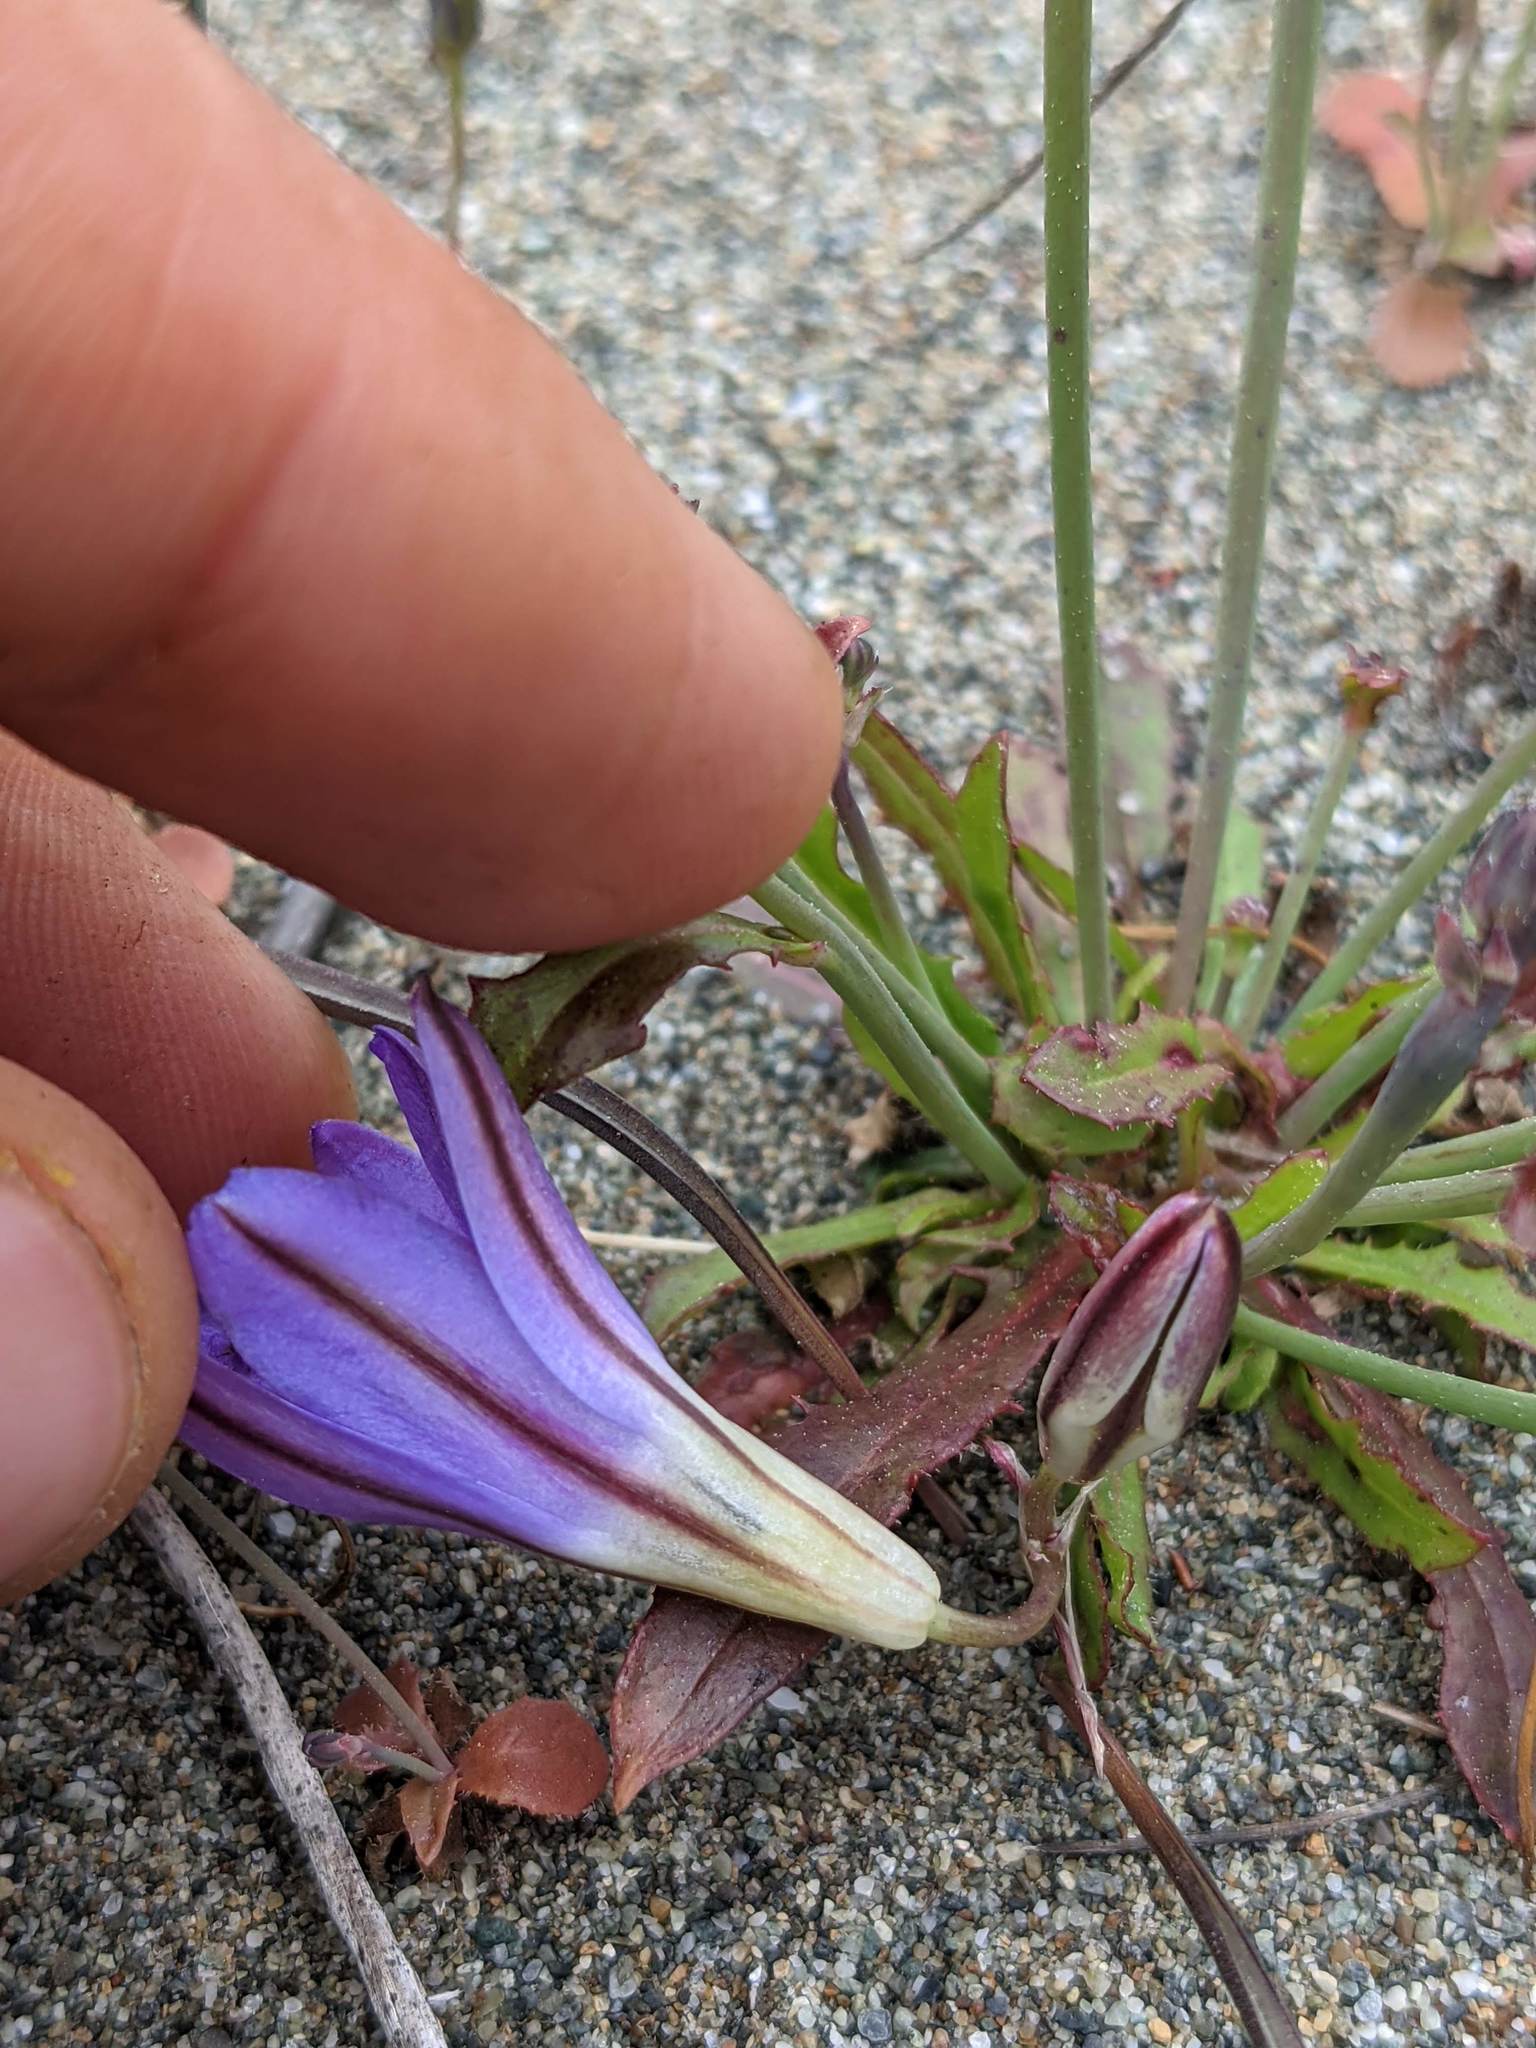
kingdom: Plantae
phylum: Tracheophyta
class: Liliopsida
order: Asparagales
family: Asparagaceae
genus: Brodiaea
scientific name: Brodiaea terrestris
